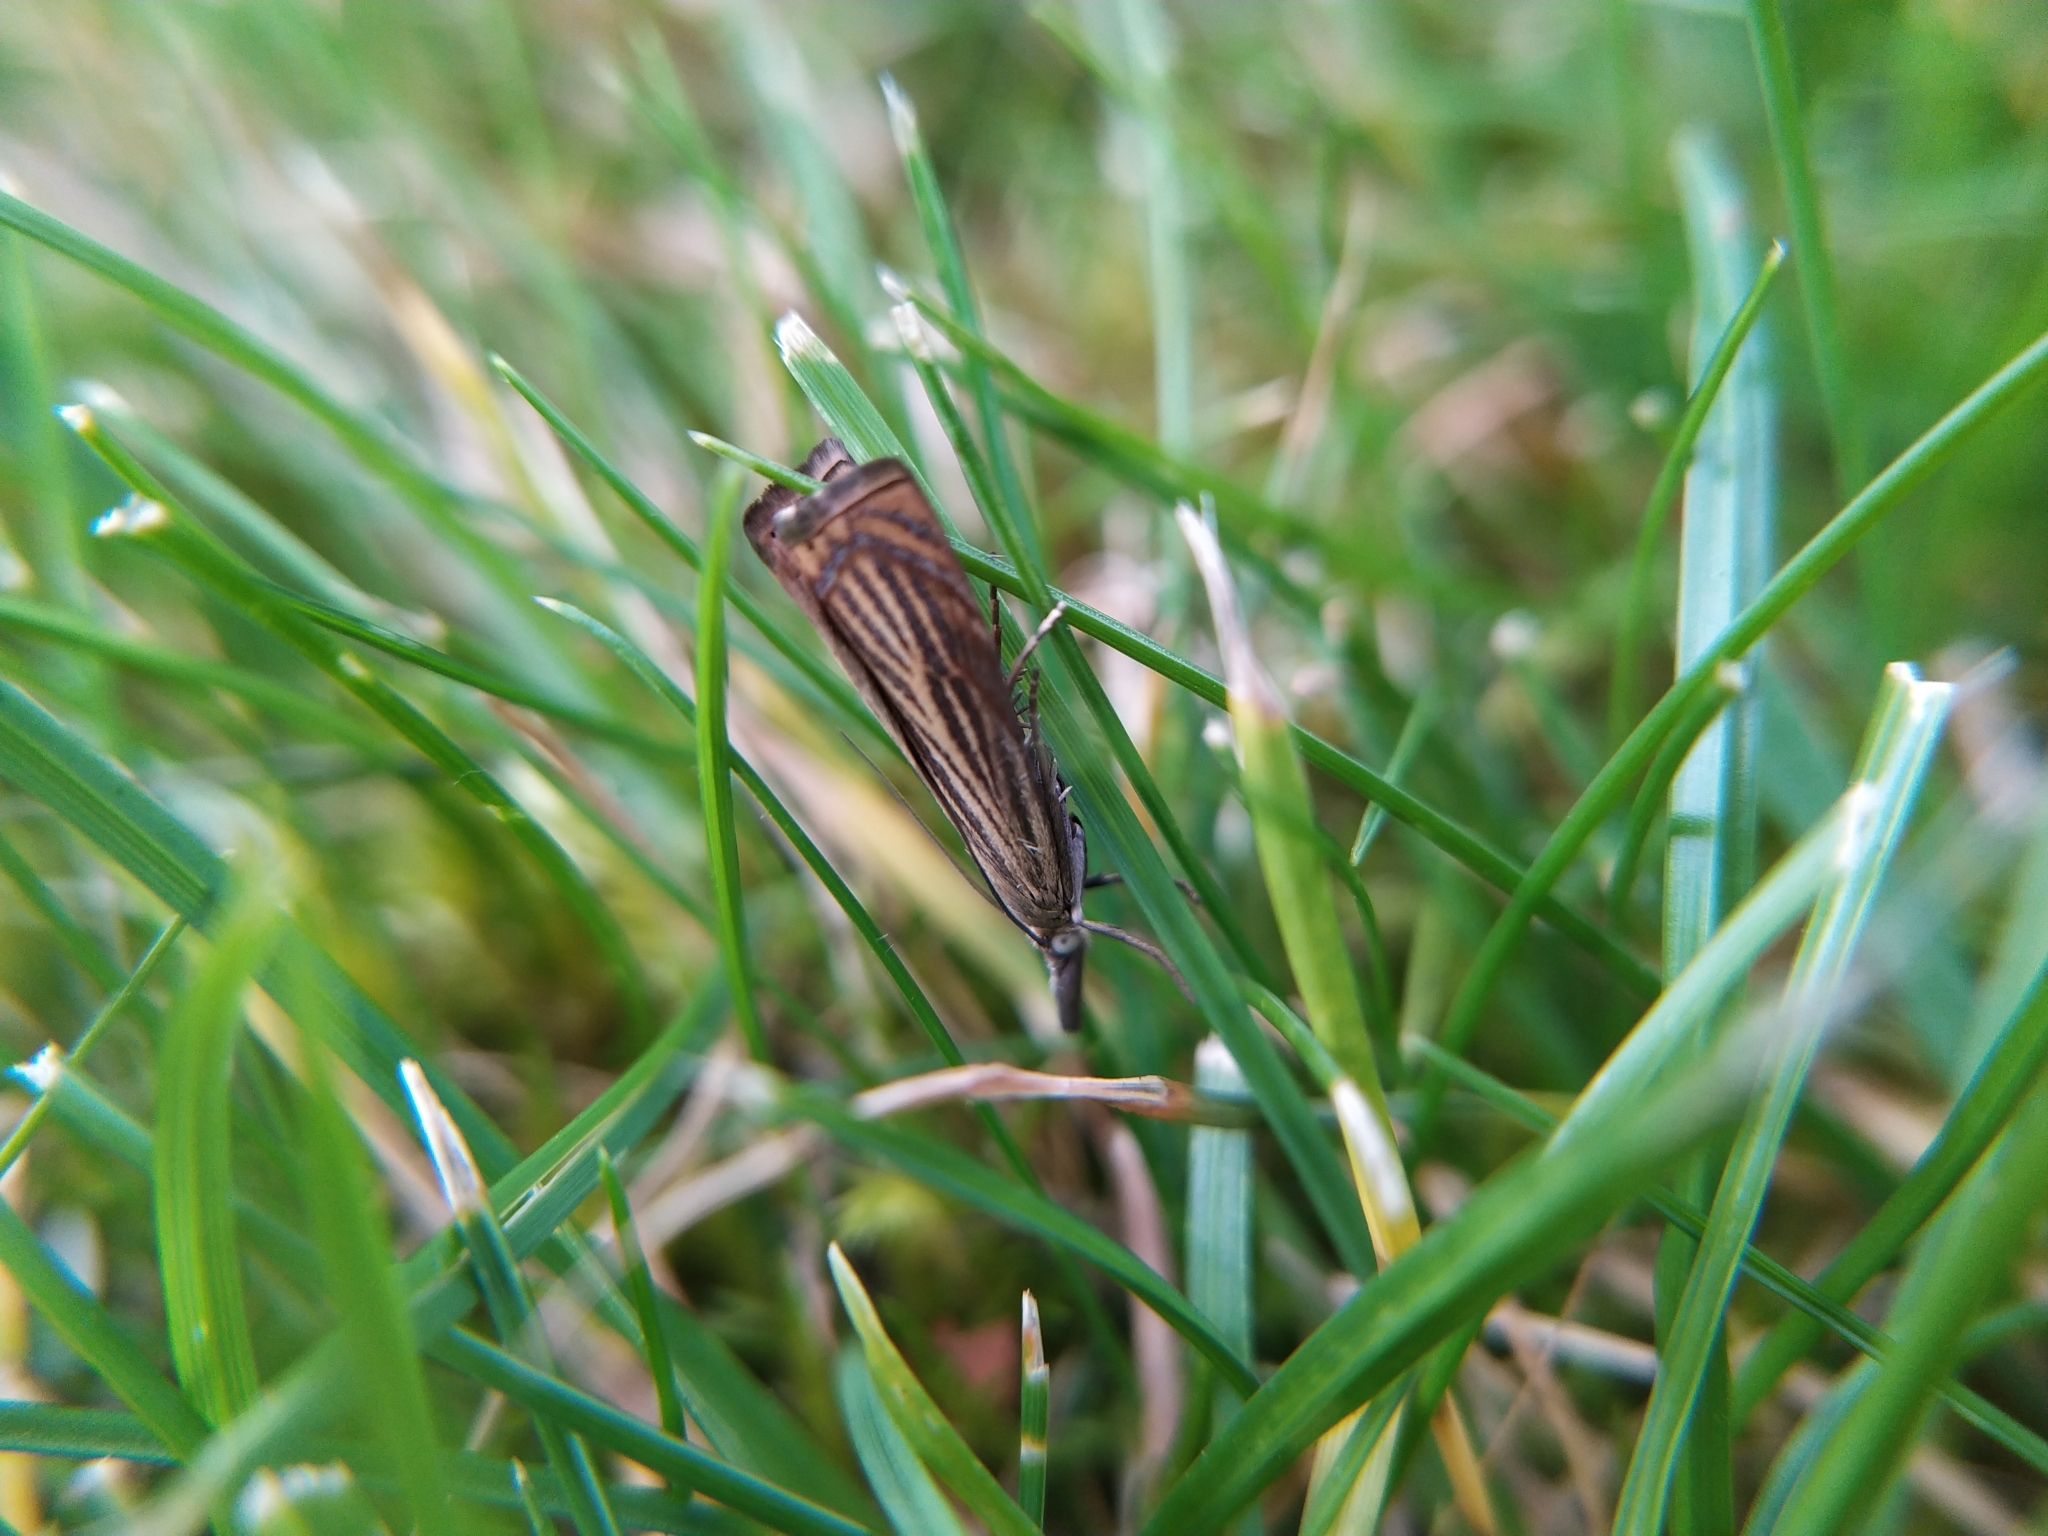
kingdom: Animalia
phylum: Arthropoda
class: Insecta
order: Lepidoptera
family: Crambidae
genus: Chrysoteuchia
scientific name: Chrysoteuchia culmella
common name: Garden grass-veneer
